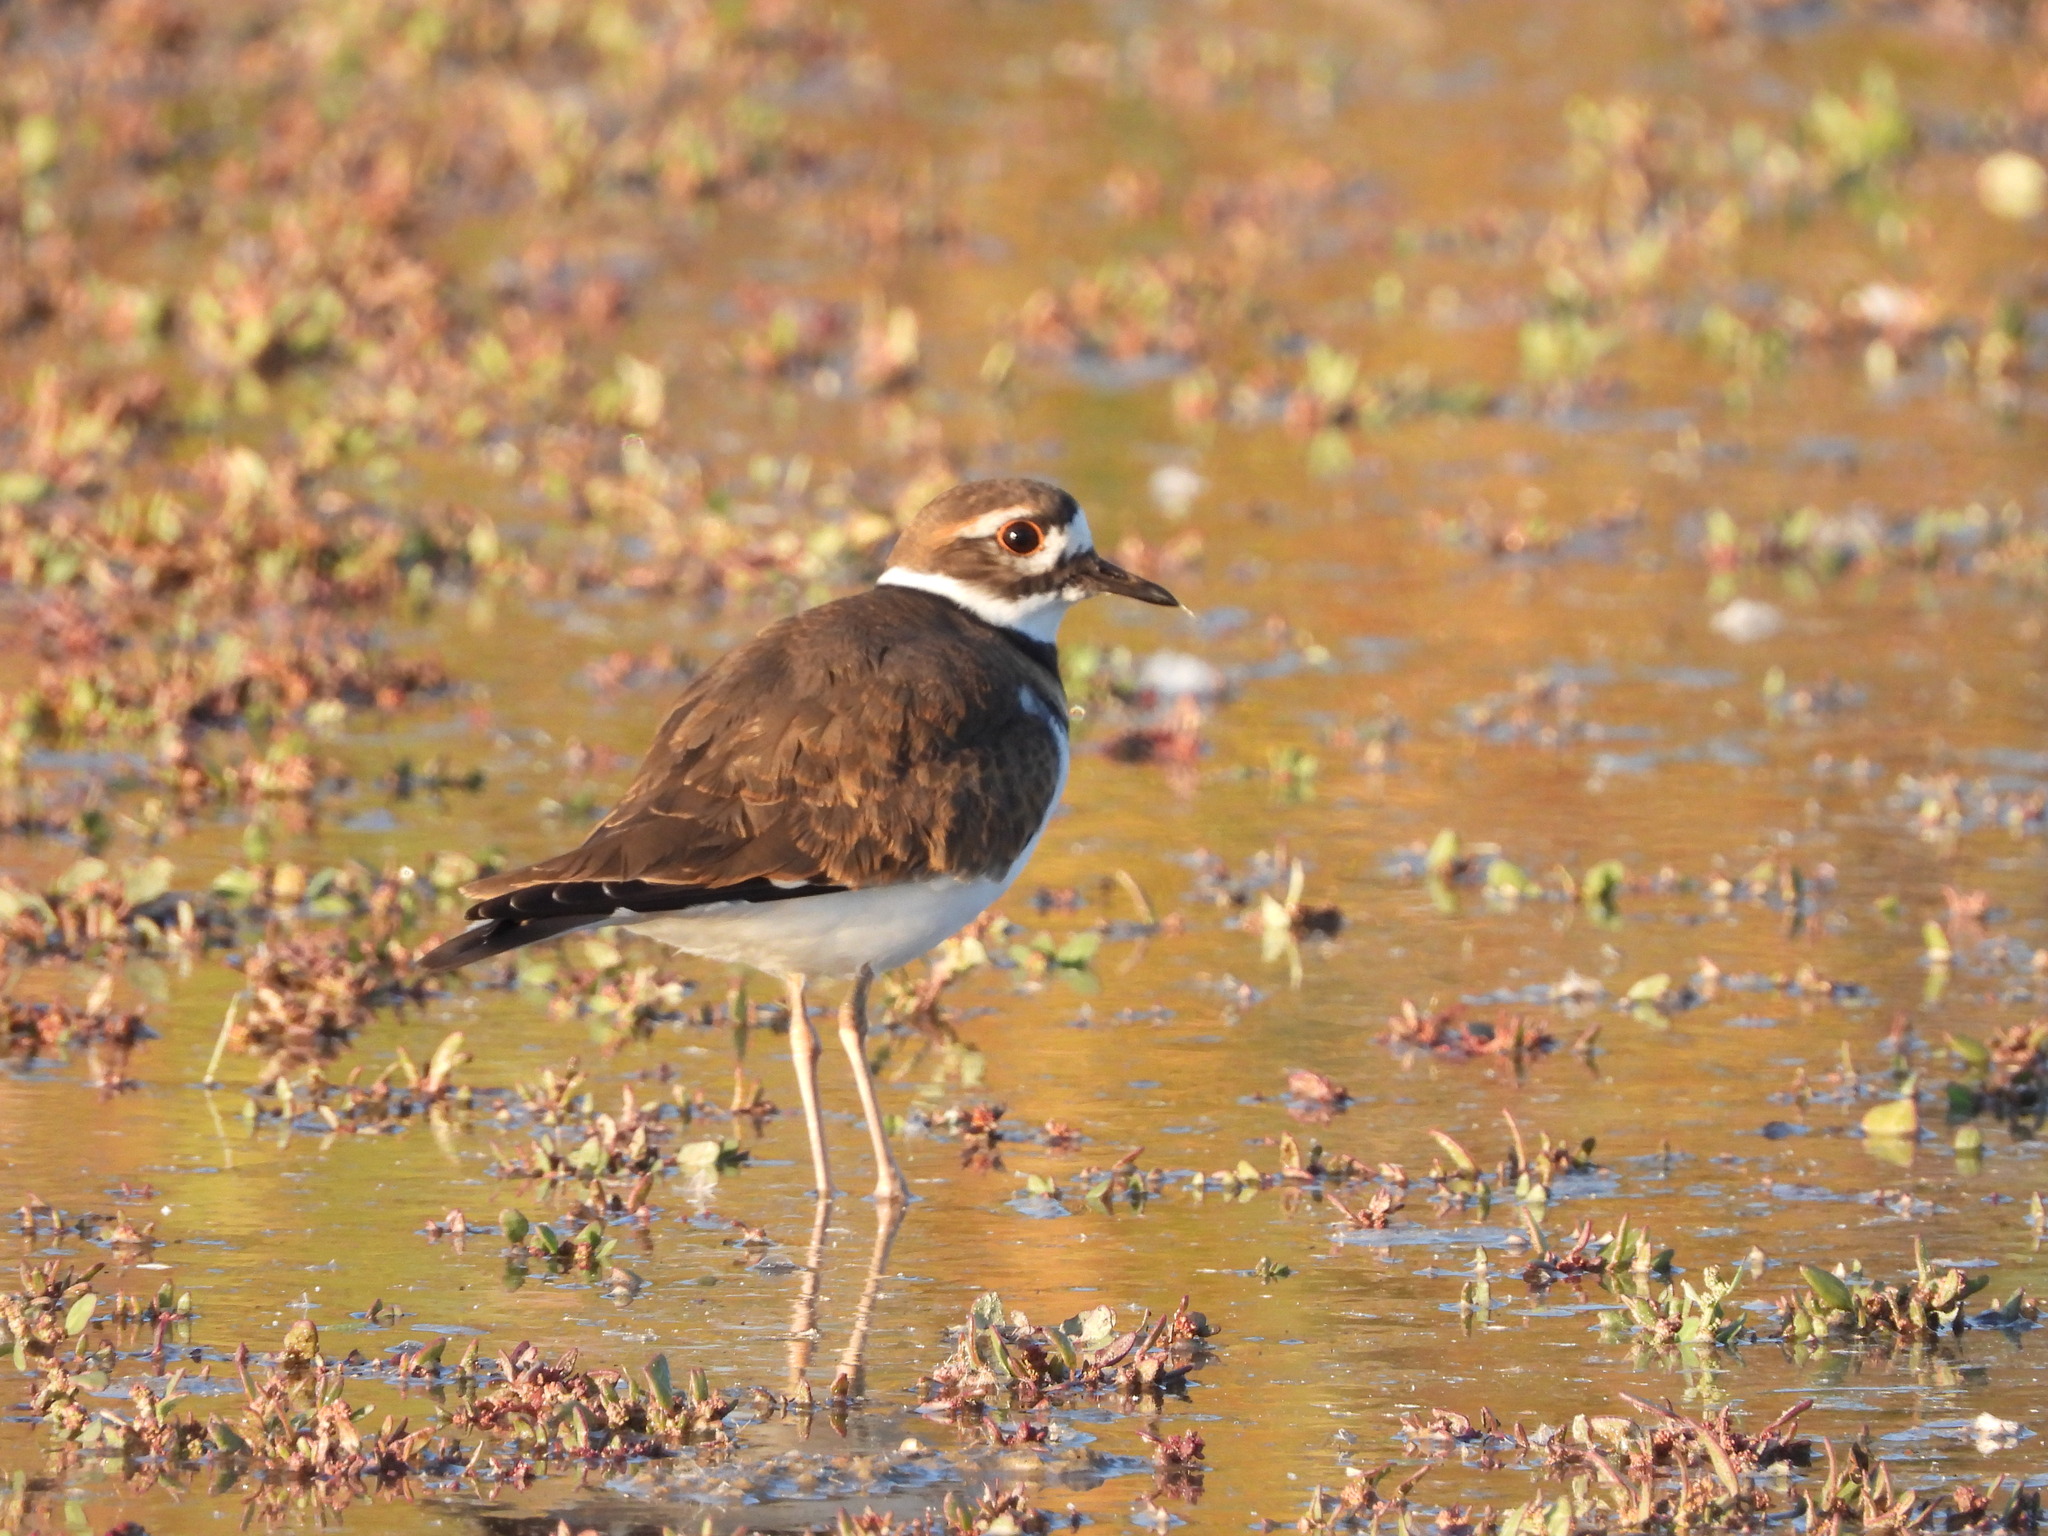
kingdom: Animalia
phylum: Chordata
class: Aves
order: Charadriiformes
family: Charadriidae
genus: Charadrius
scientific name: Charadrius vociferus
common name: Killdeer
